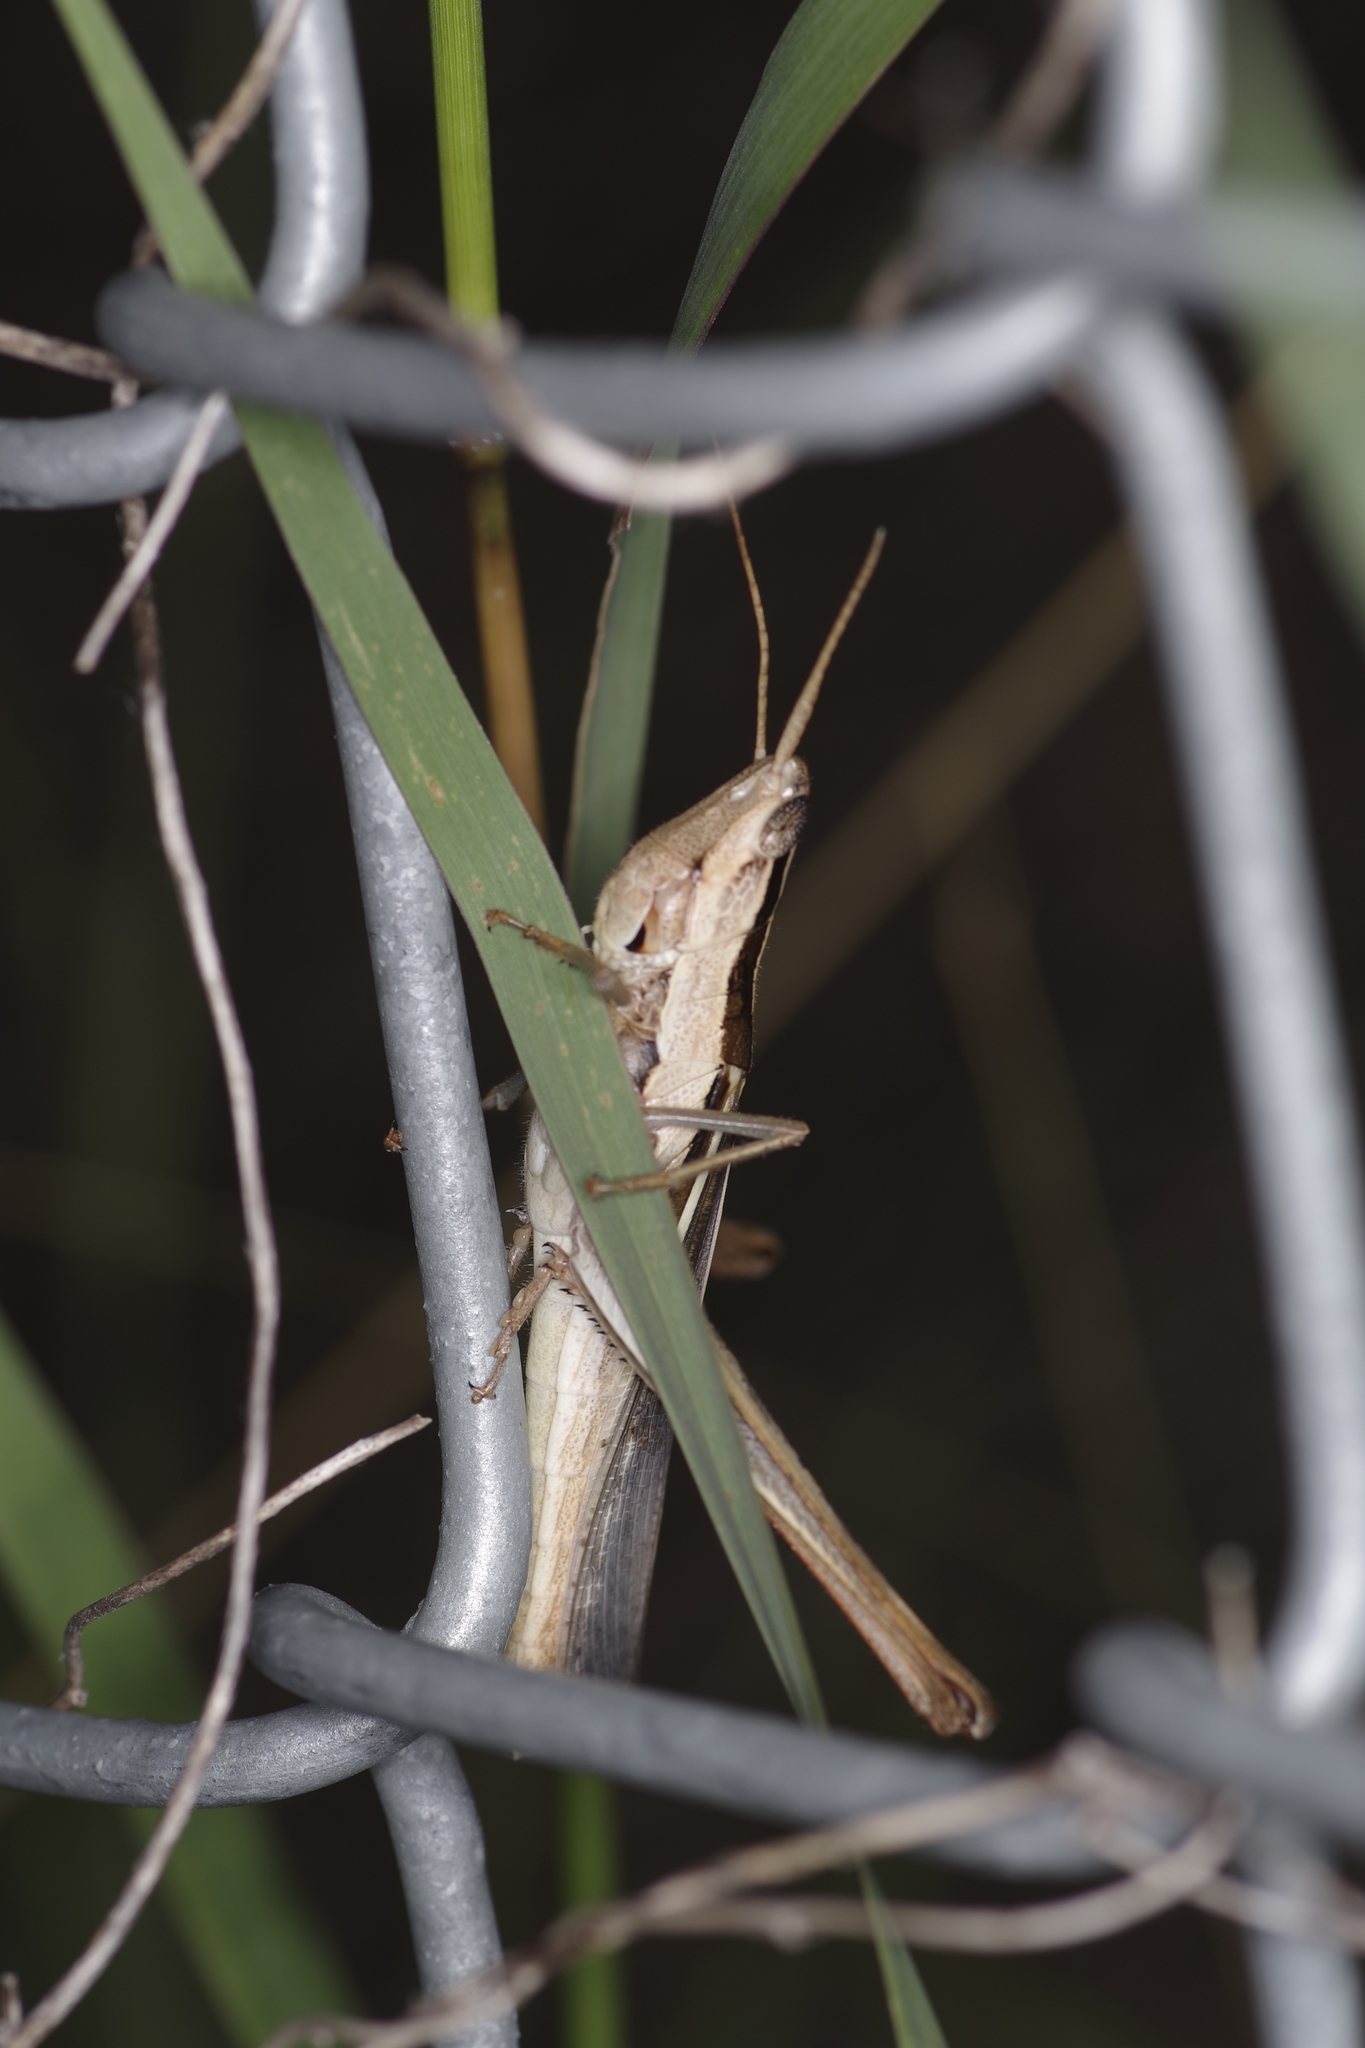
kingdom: Animalia
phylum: Arthropoda
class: Insecta
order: Orthoptera
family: Acrididae
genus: Mermiria
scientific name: Mermiria bivittata
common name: Two-striped mermiria grasshopper
